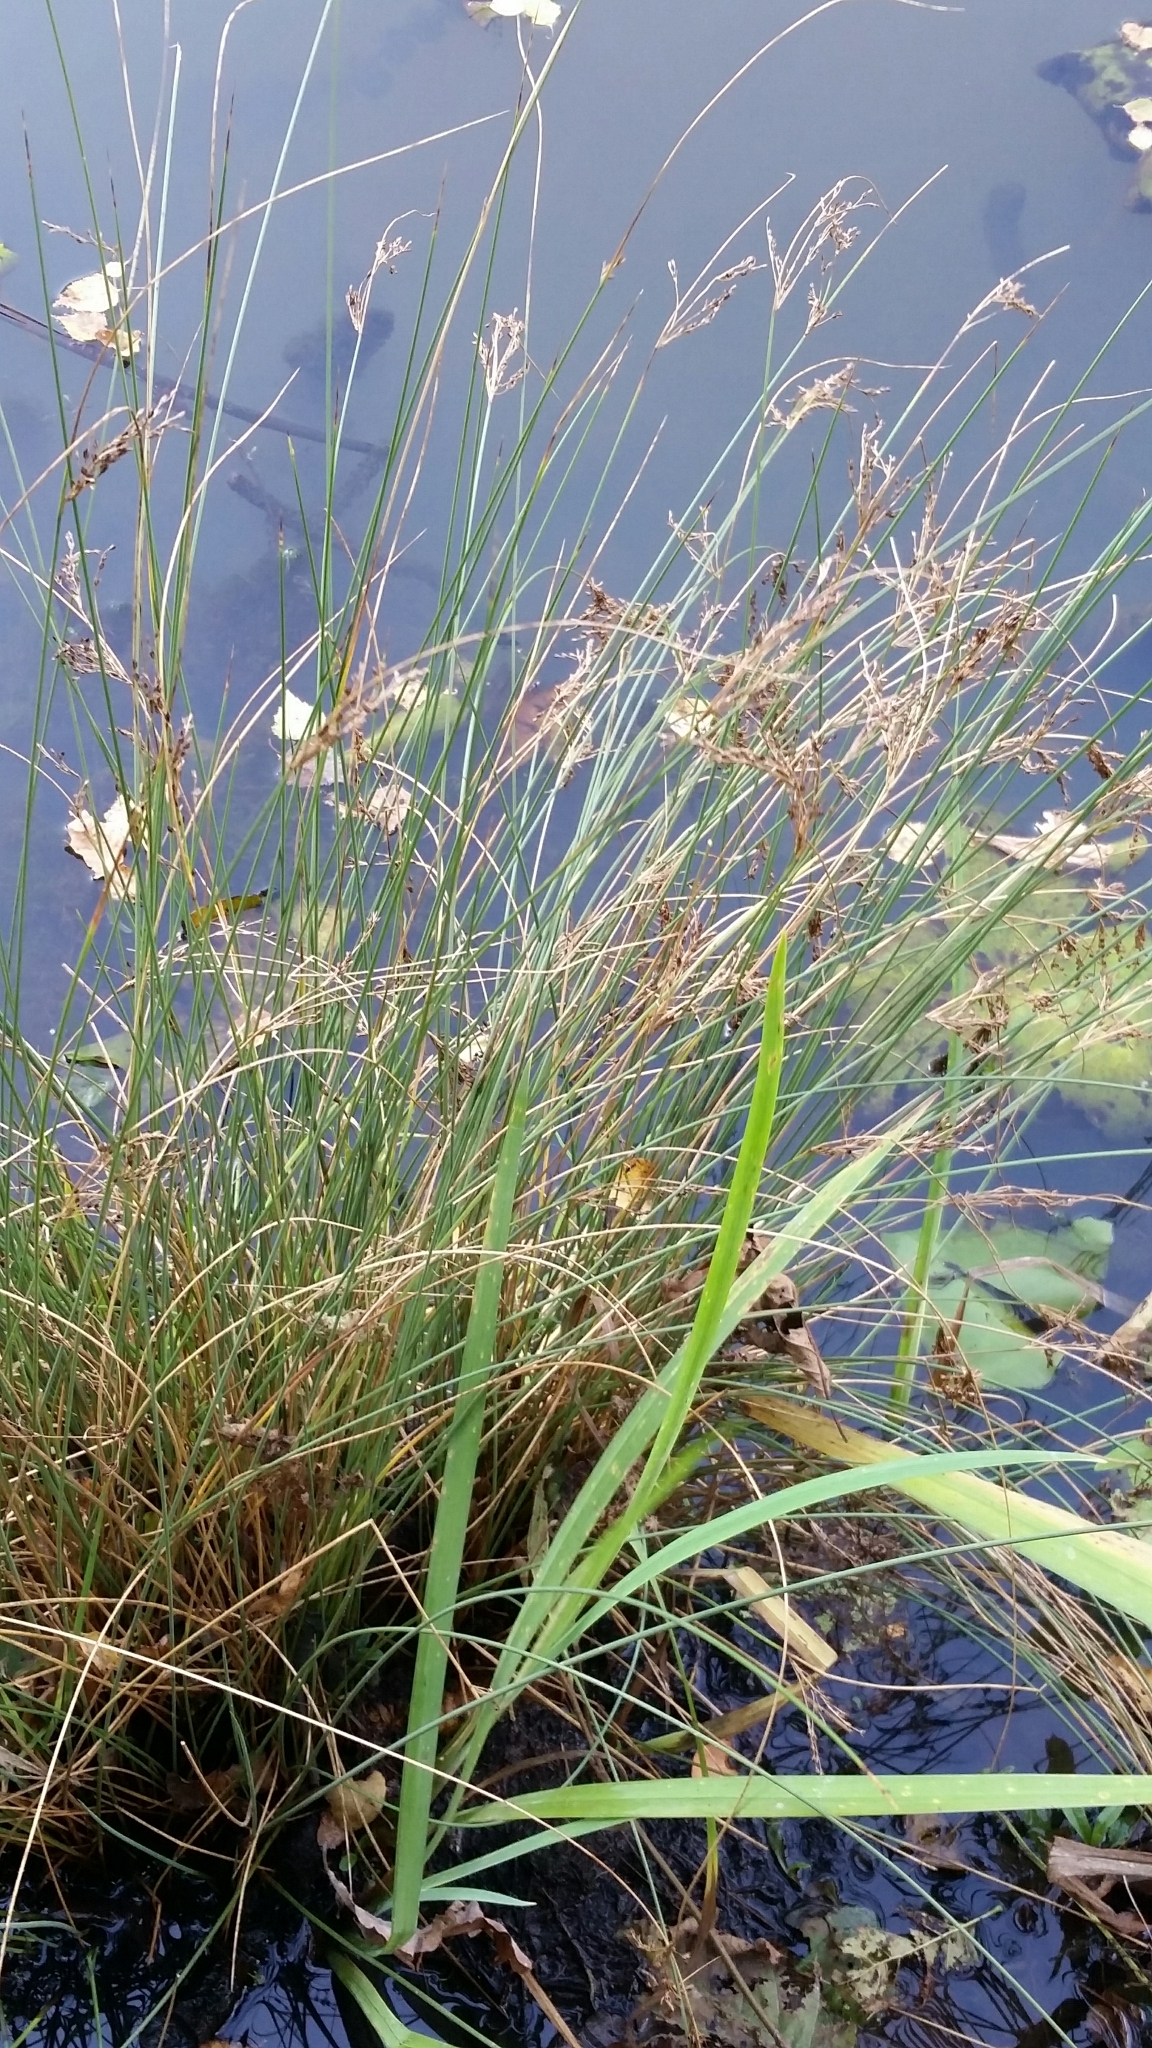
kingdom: Plantae
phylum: Tracheophyta
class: Liliopsida
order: Poales
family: Juncaceae
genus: Juncus
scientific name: Juncus inflexus
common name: Hard rush
